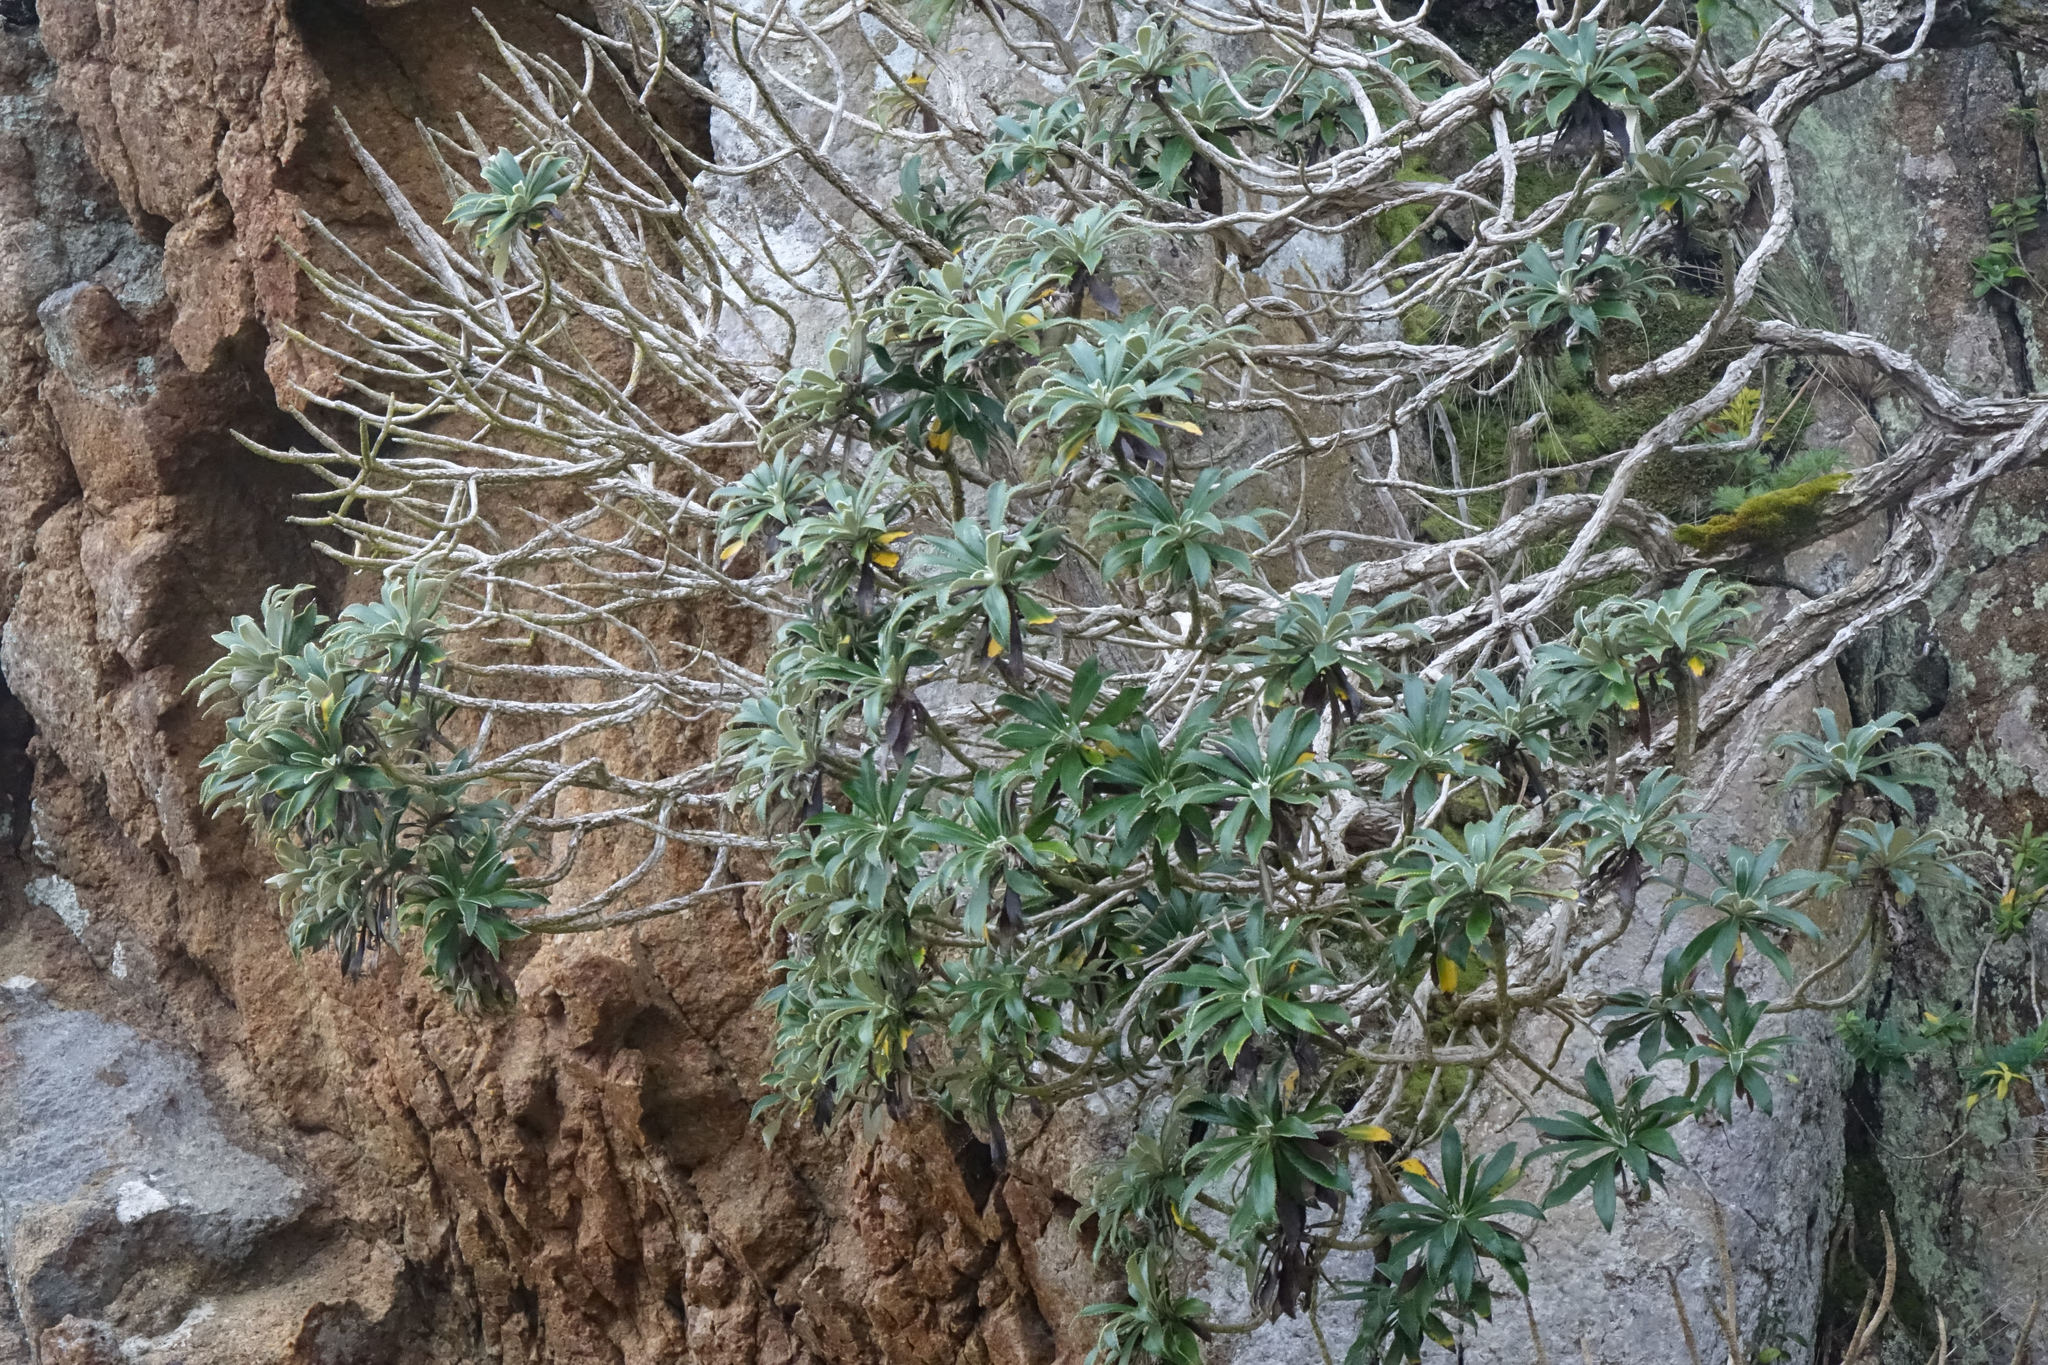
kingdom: Plantae
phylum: Tracheophyta
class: Magnoliopsida
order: Asterales
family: Asteraceae
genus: Macrolearia
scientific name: Macrolearia angustifolia
